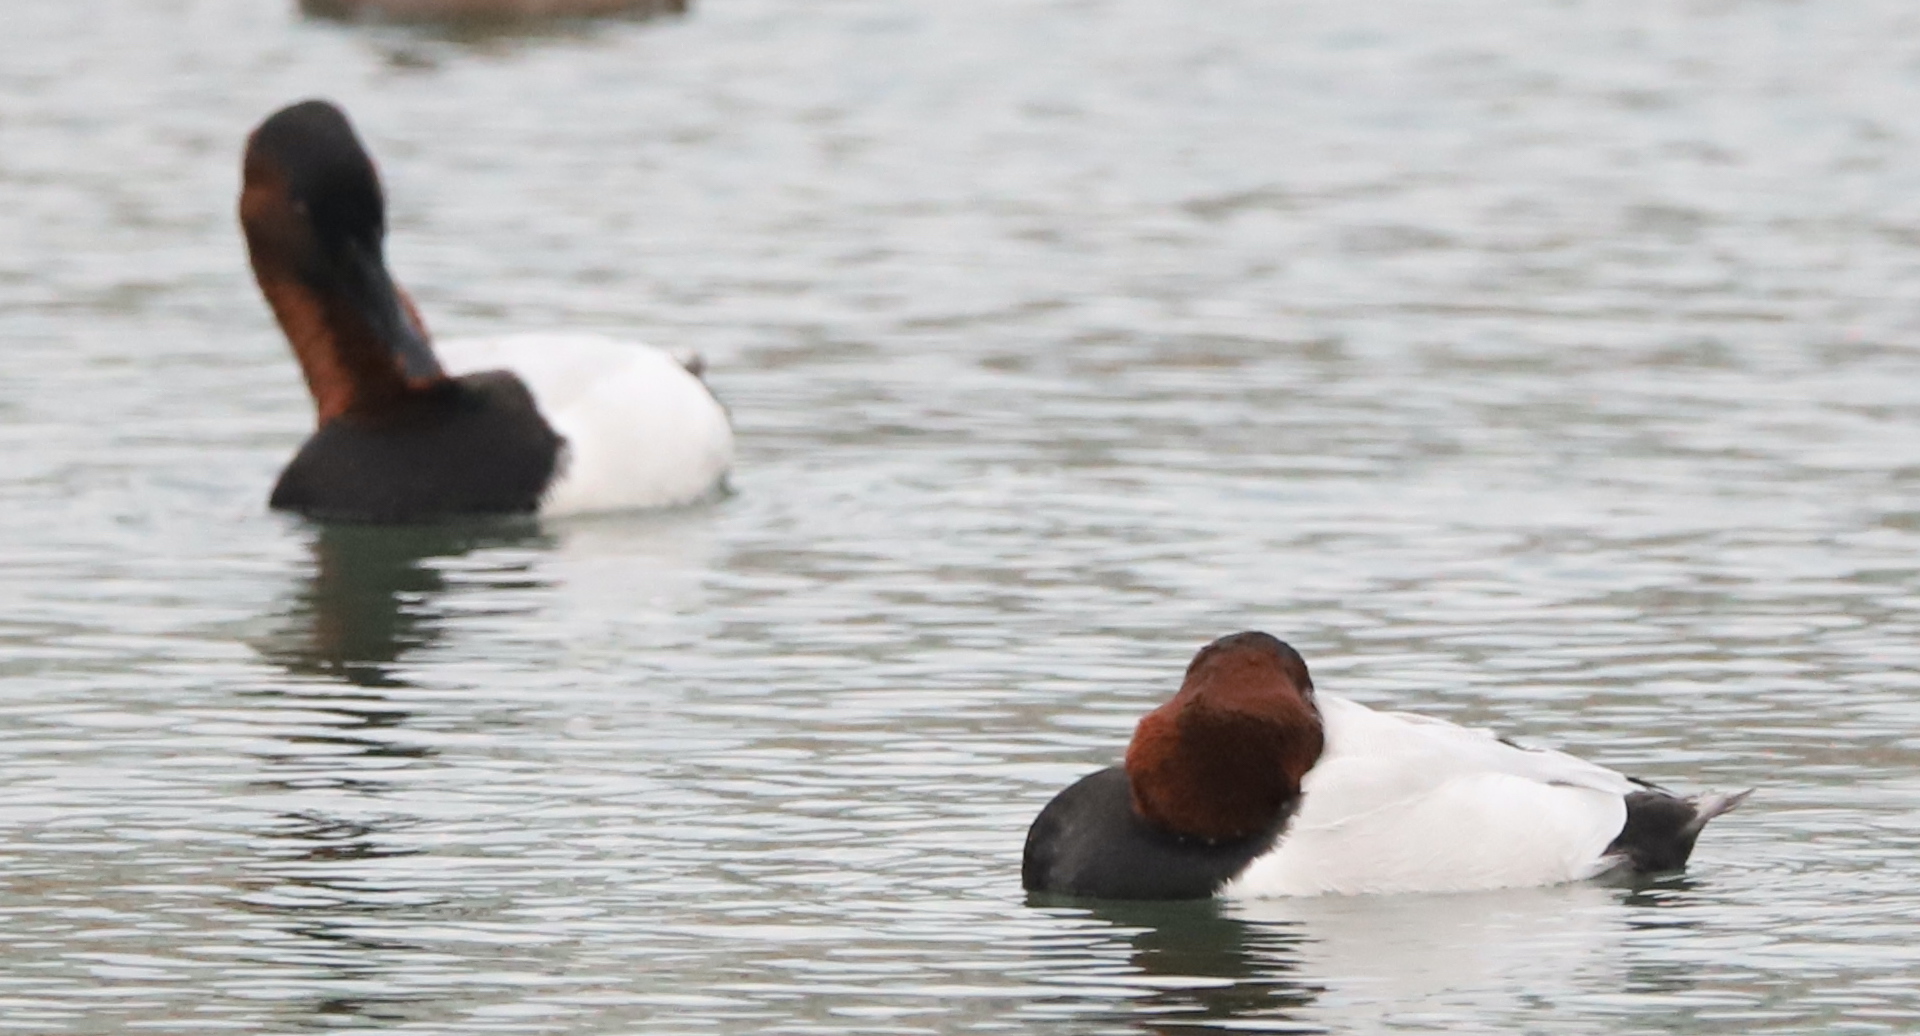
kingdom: Animalia
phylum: Chordata
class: Aves
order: Anseriformes
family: Anatidae
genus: Aythya
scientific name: Aythya valisineria
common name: Canvasback
